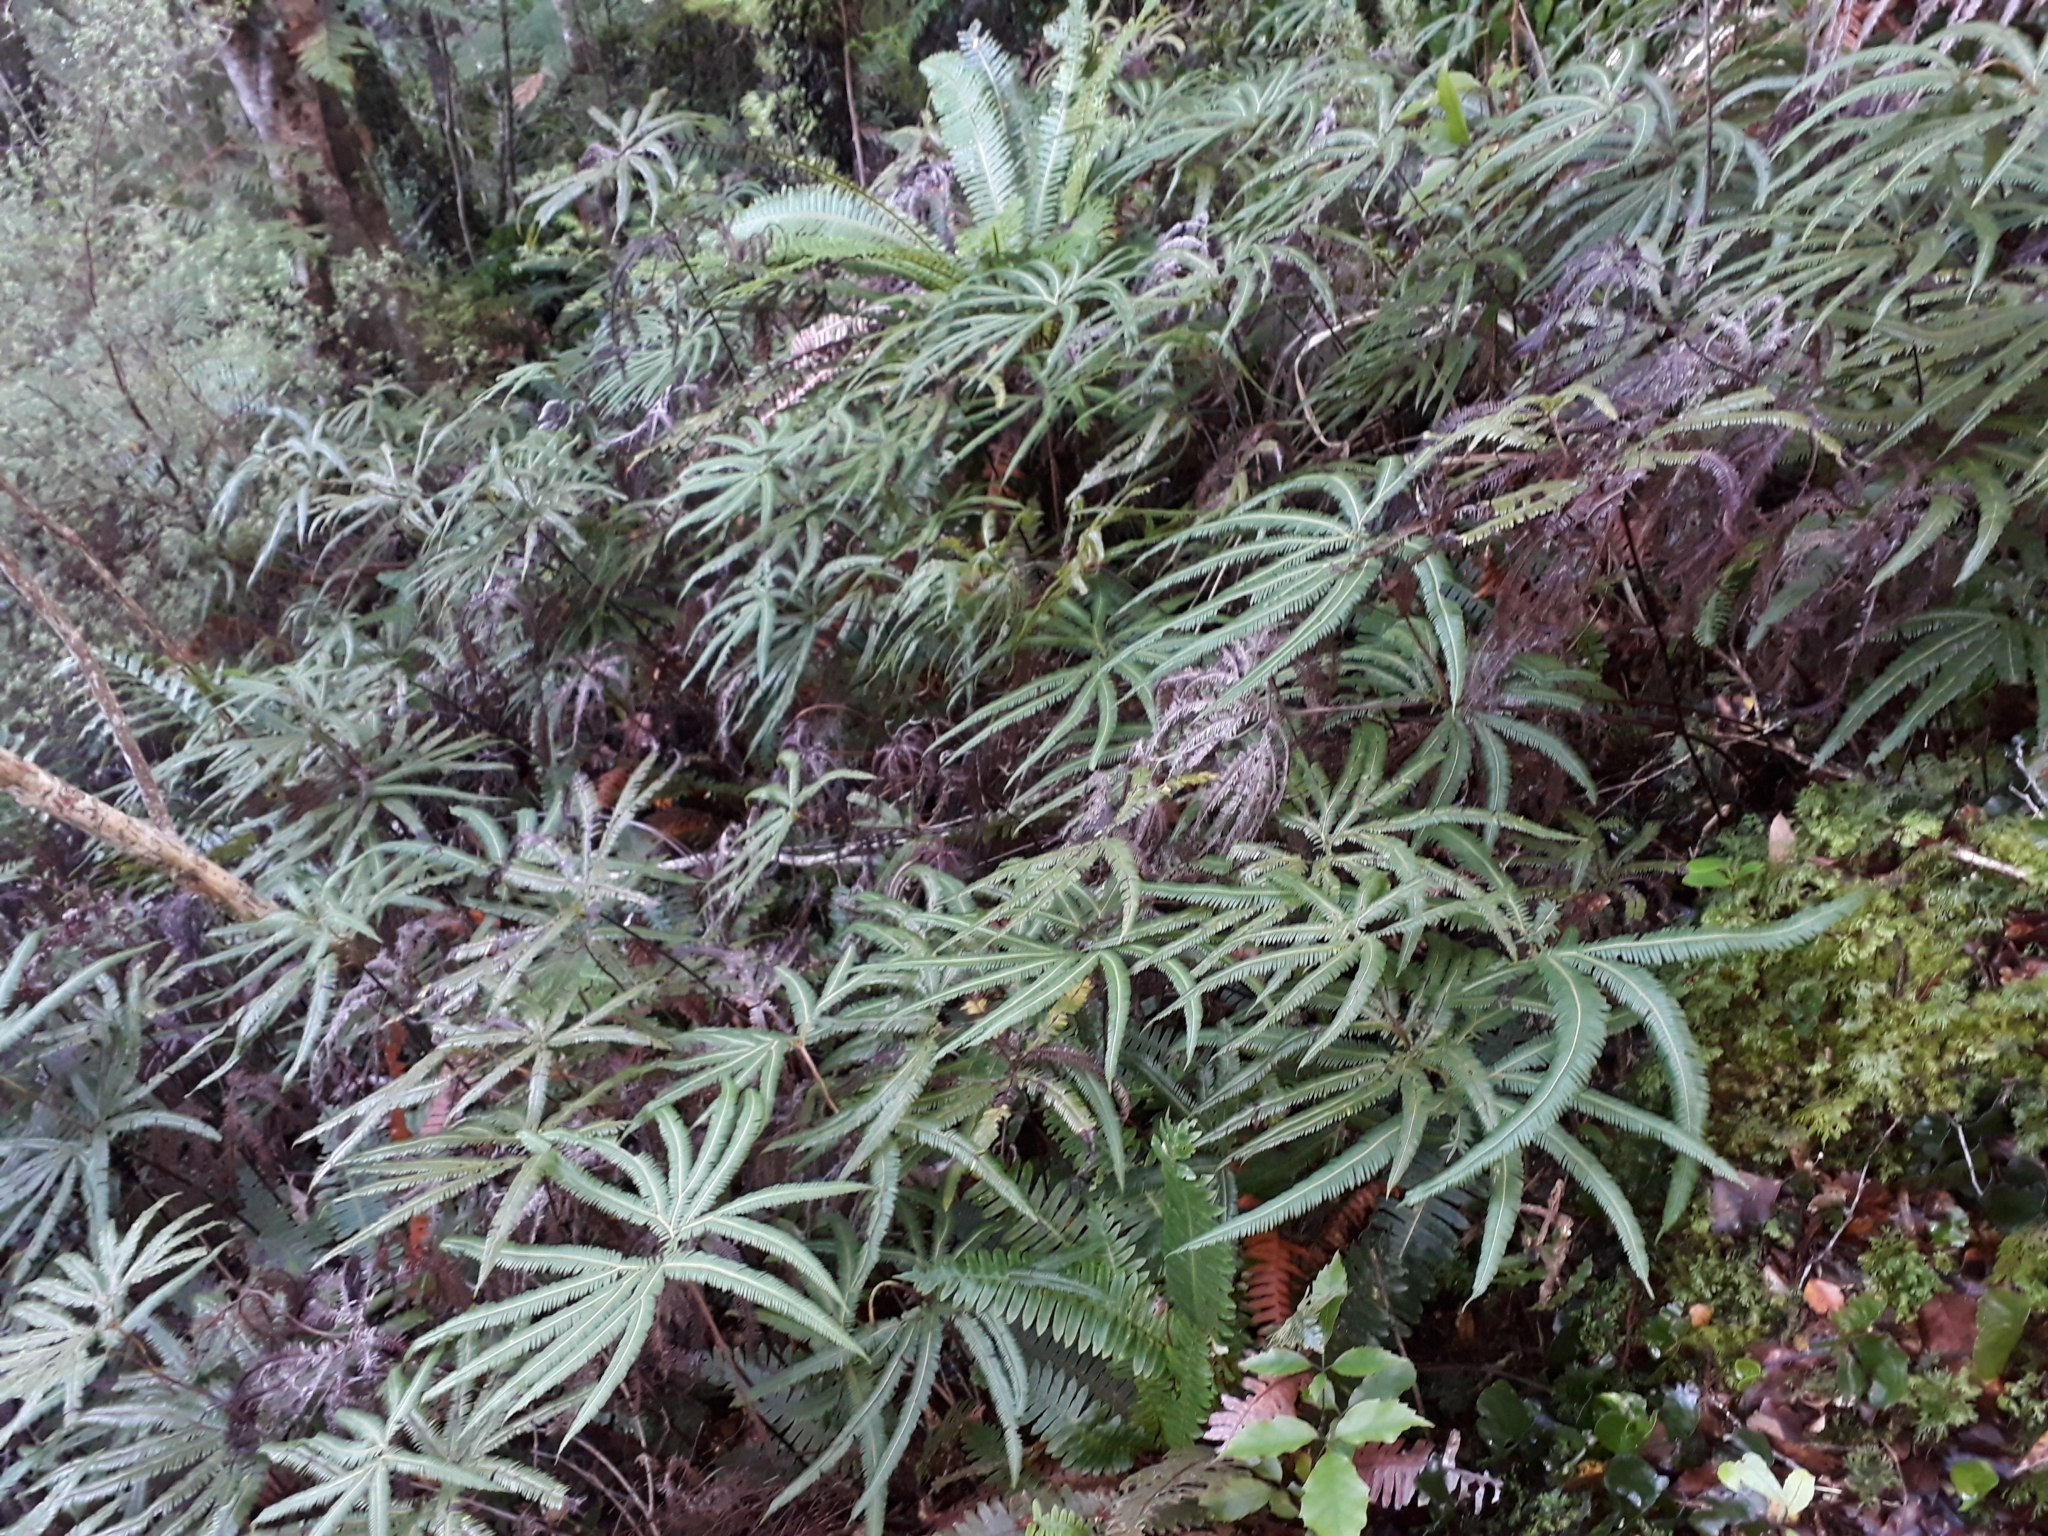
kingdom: Plantae
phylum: Tracheophyta
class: Polypodiopsida
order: Gleicheniales
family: Gleicheniaceae
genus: Sticherus
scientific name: Sticherus cunninghamii
